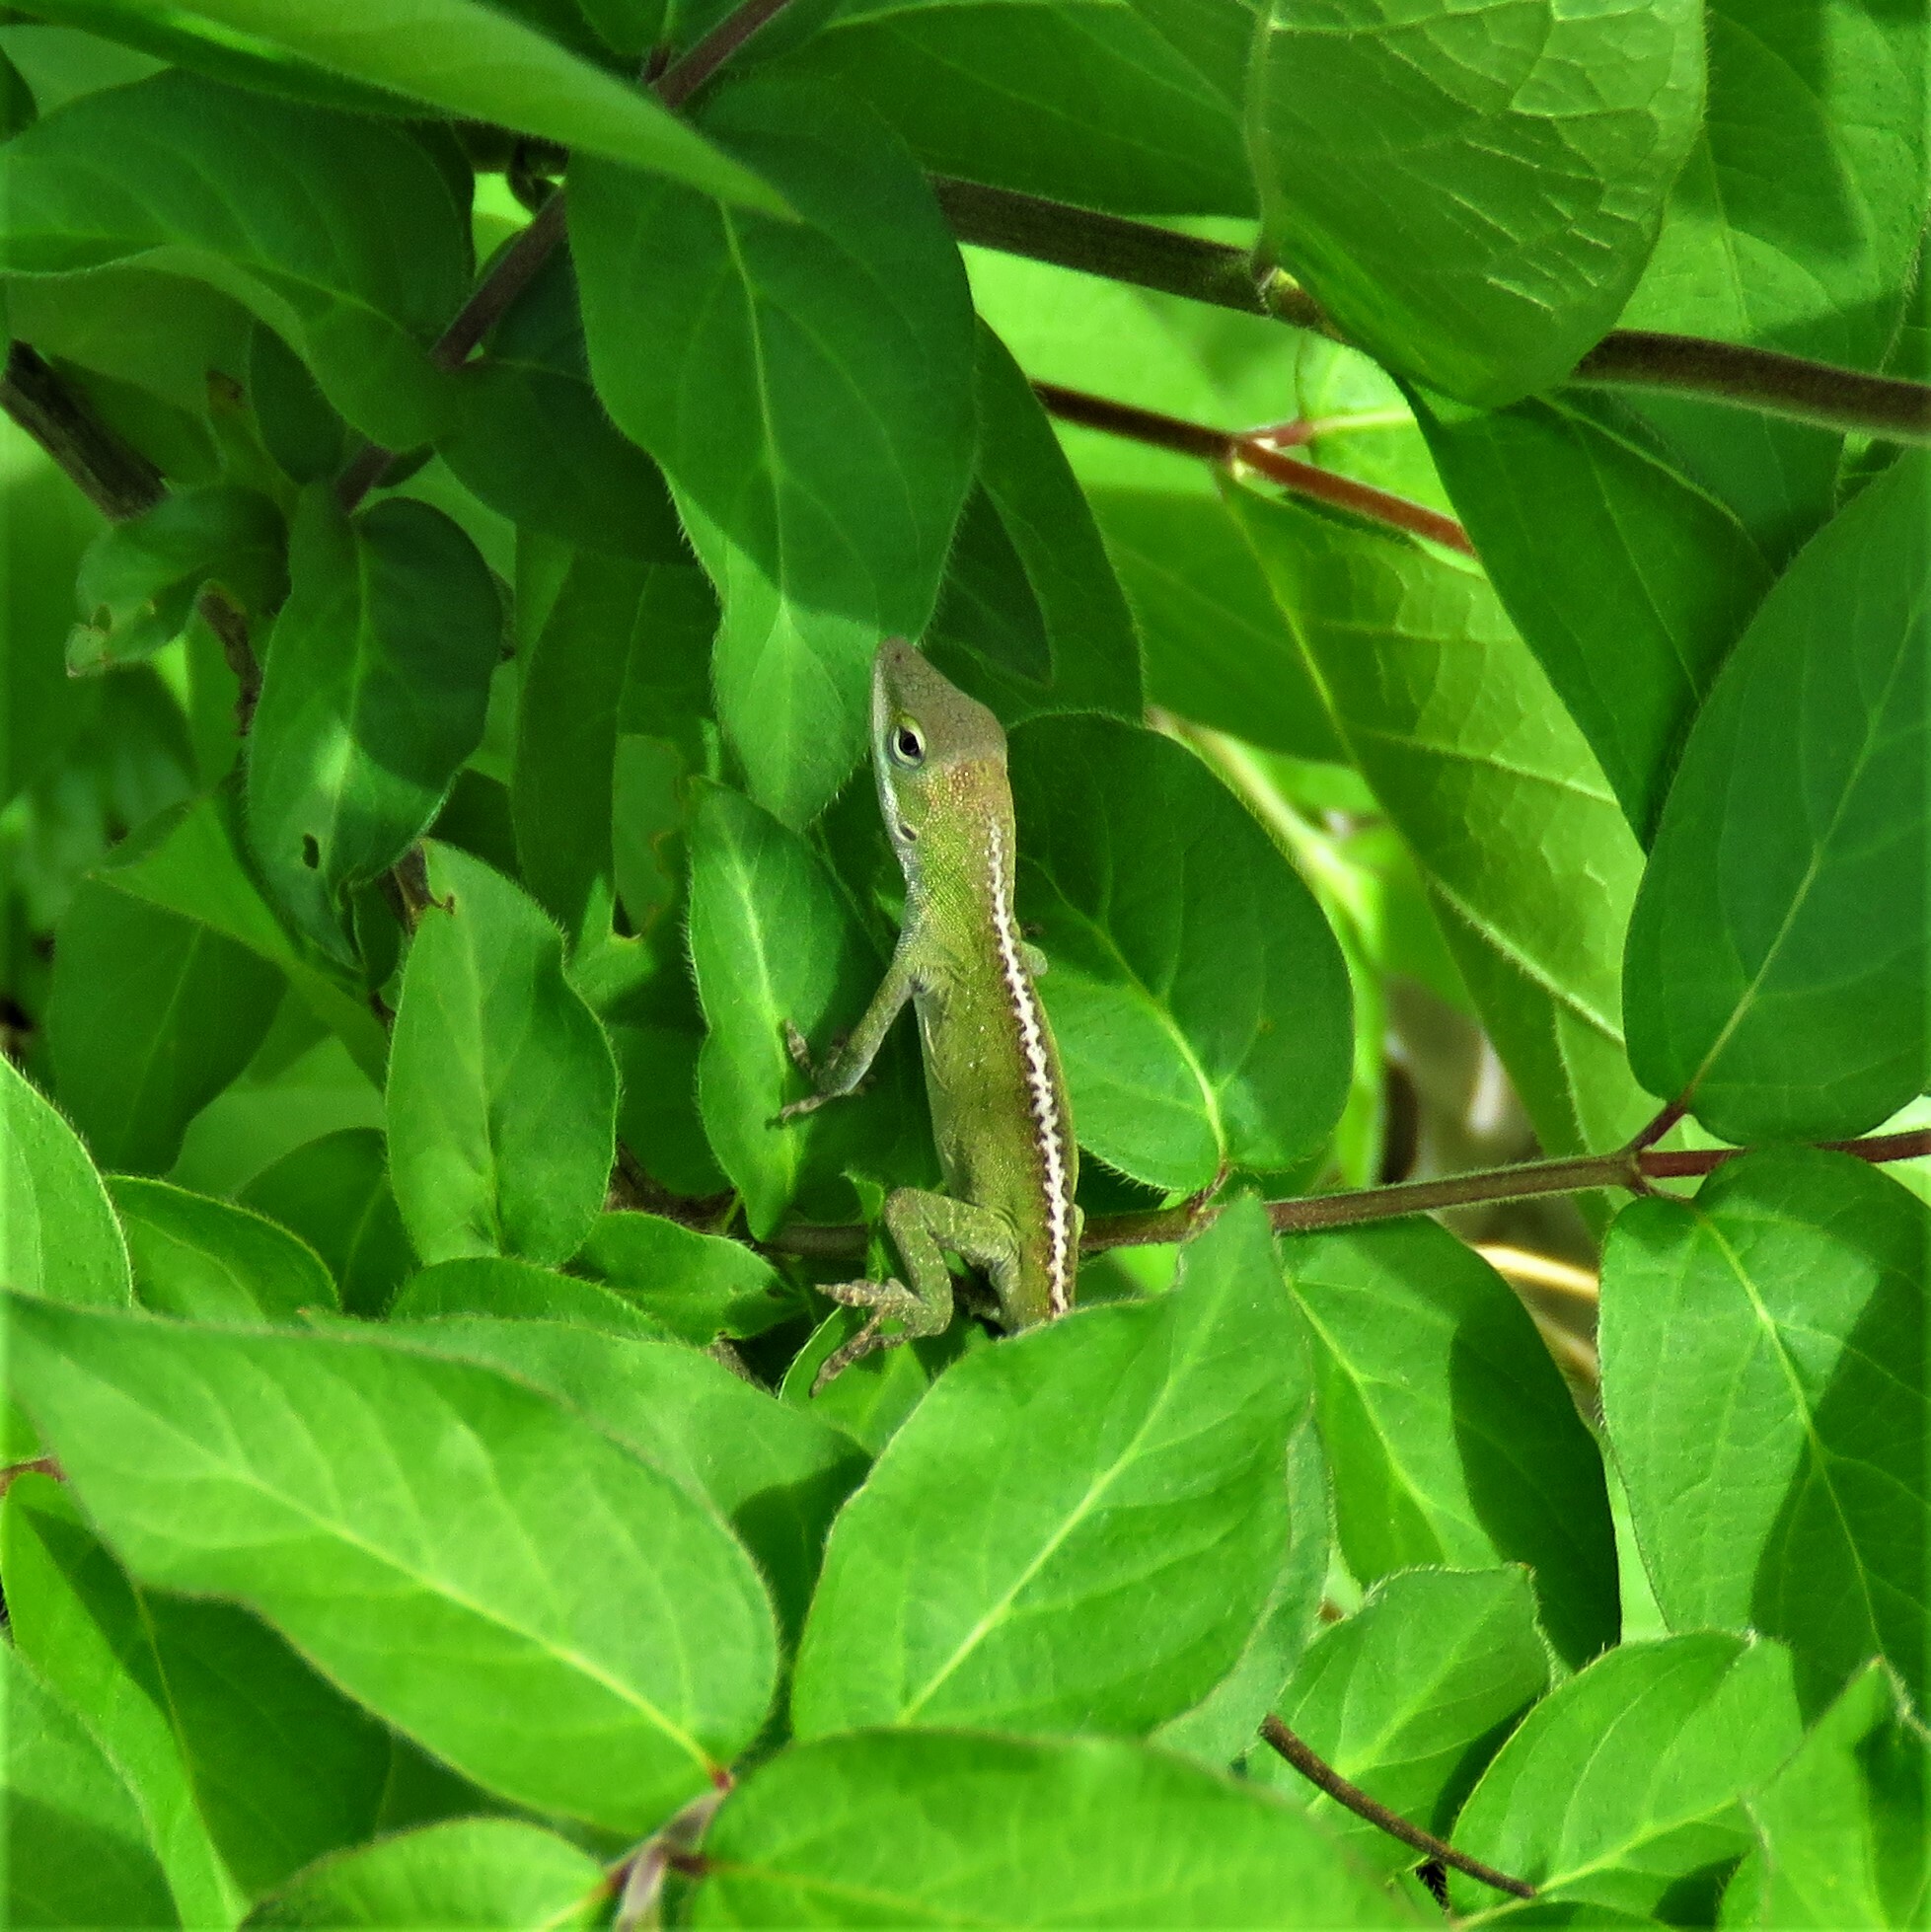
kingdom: Animalia
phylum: Chordata
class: Squamata
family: Dactyloidae
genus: Anolis
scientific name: Anolis carolinensis
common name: Green anole
